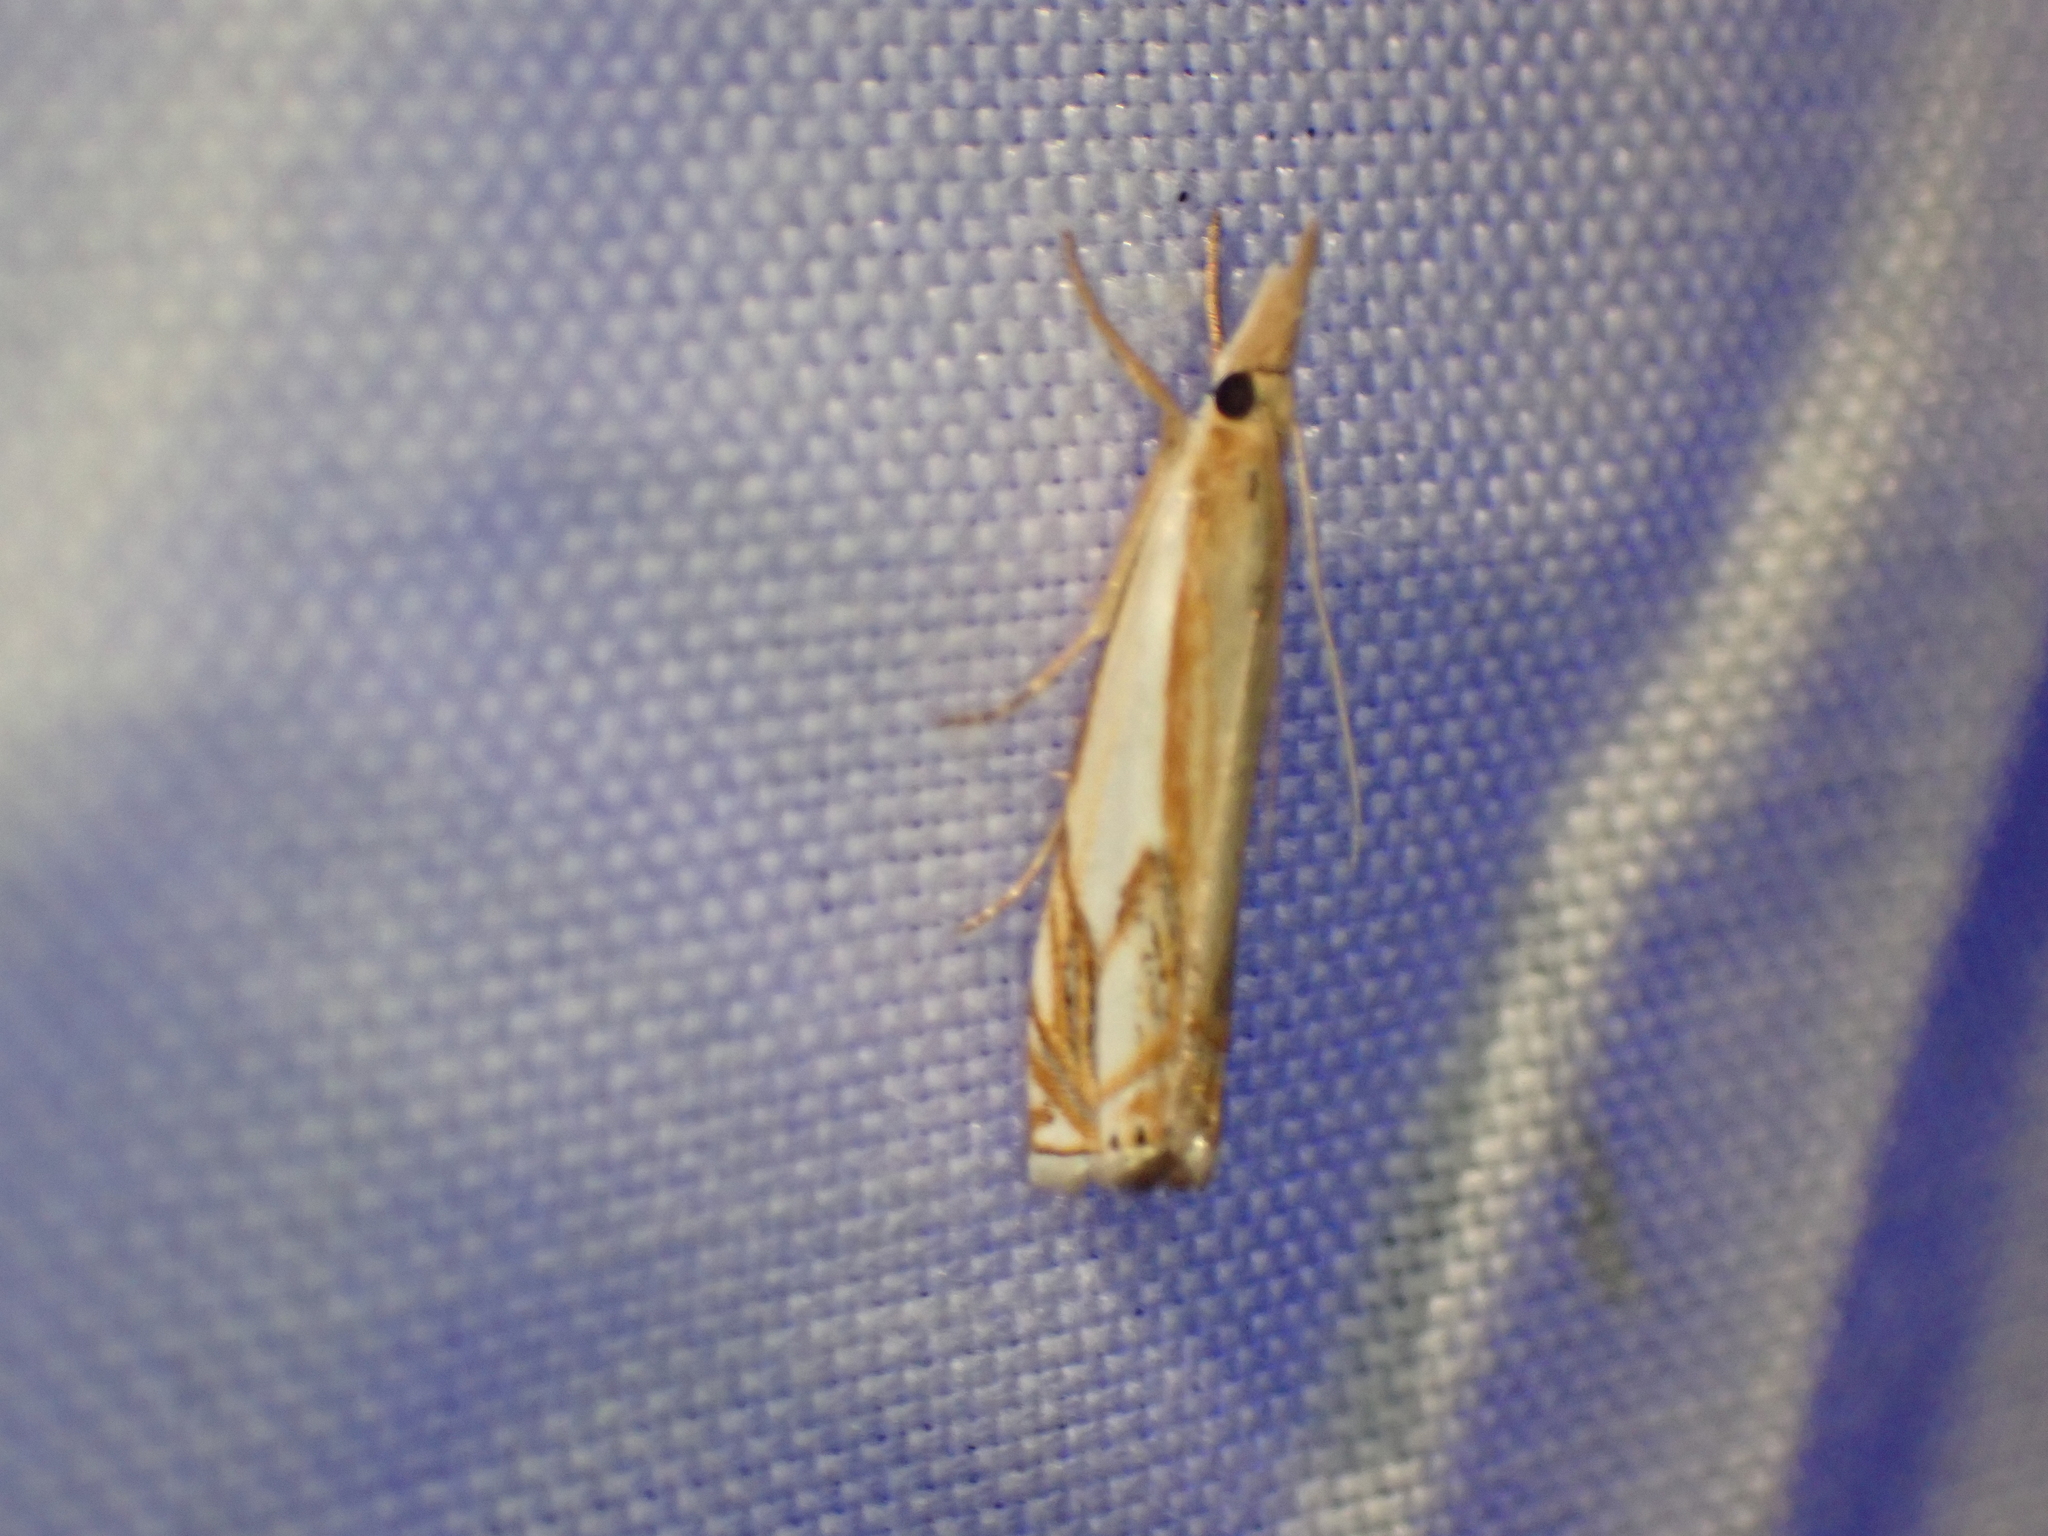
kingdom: Animalia
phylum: Arthropoda
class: Insecta
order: Lepidoptera
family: Crambidae
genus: Crambus
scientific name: Crambus agitatellus
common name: Double-banded grass-veneer
